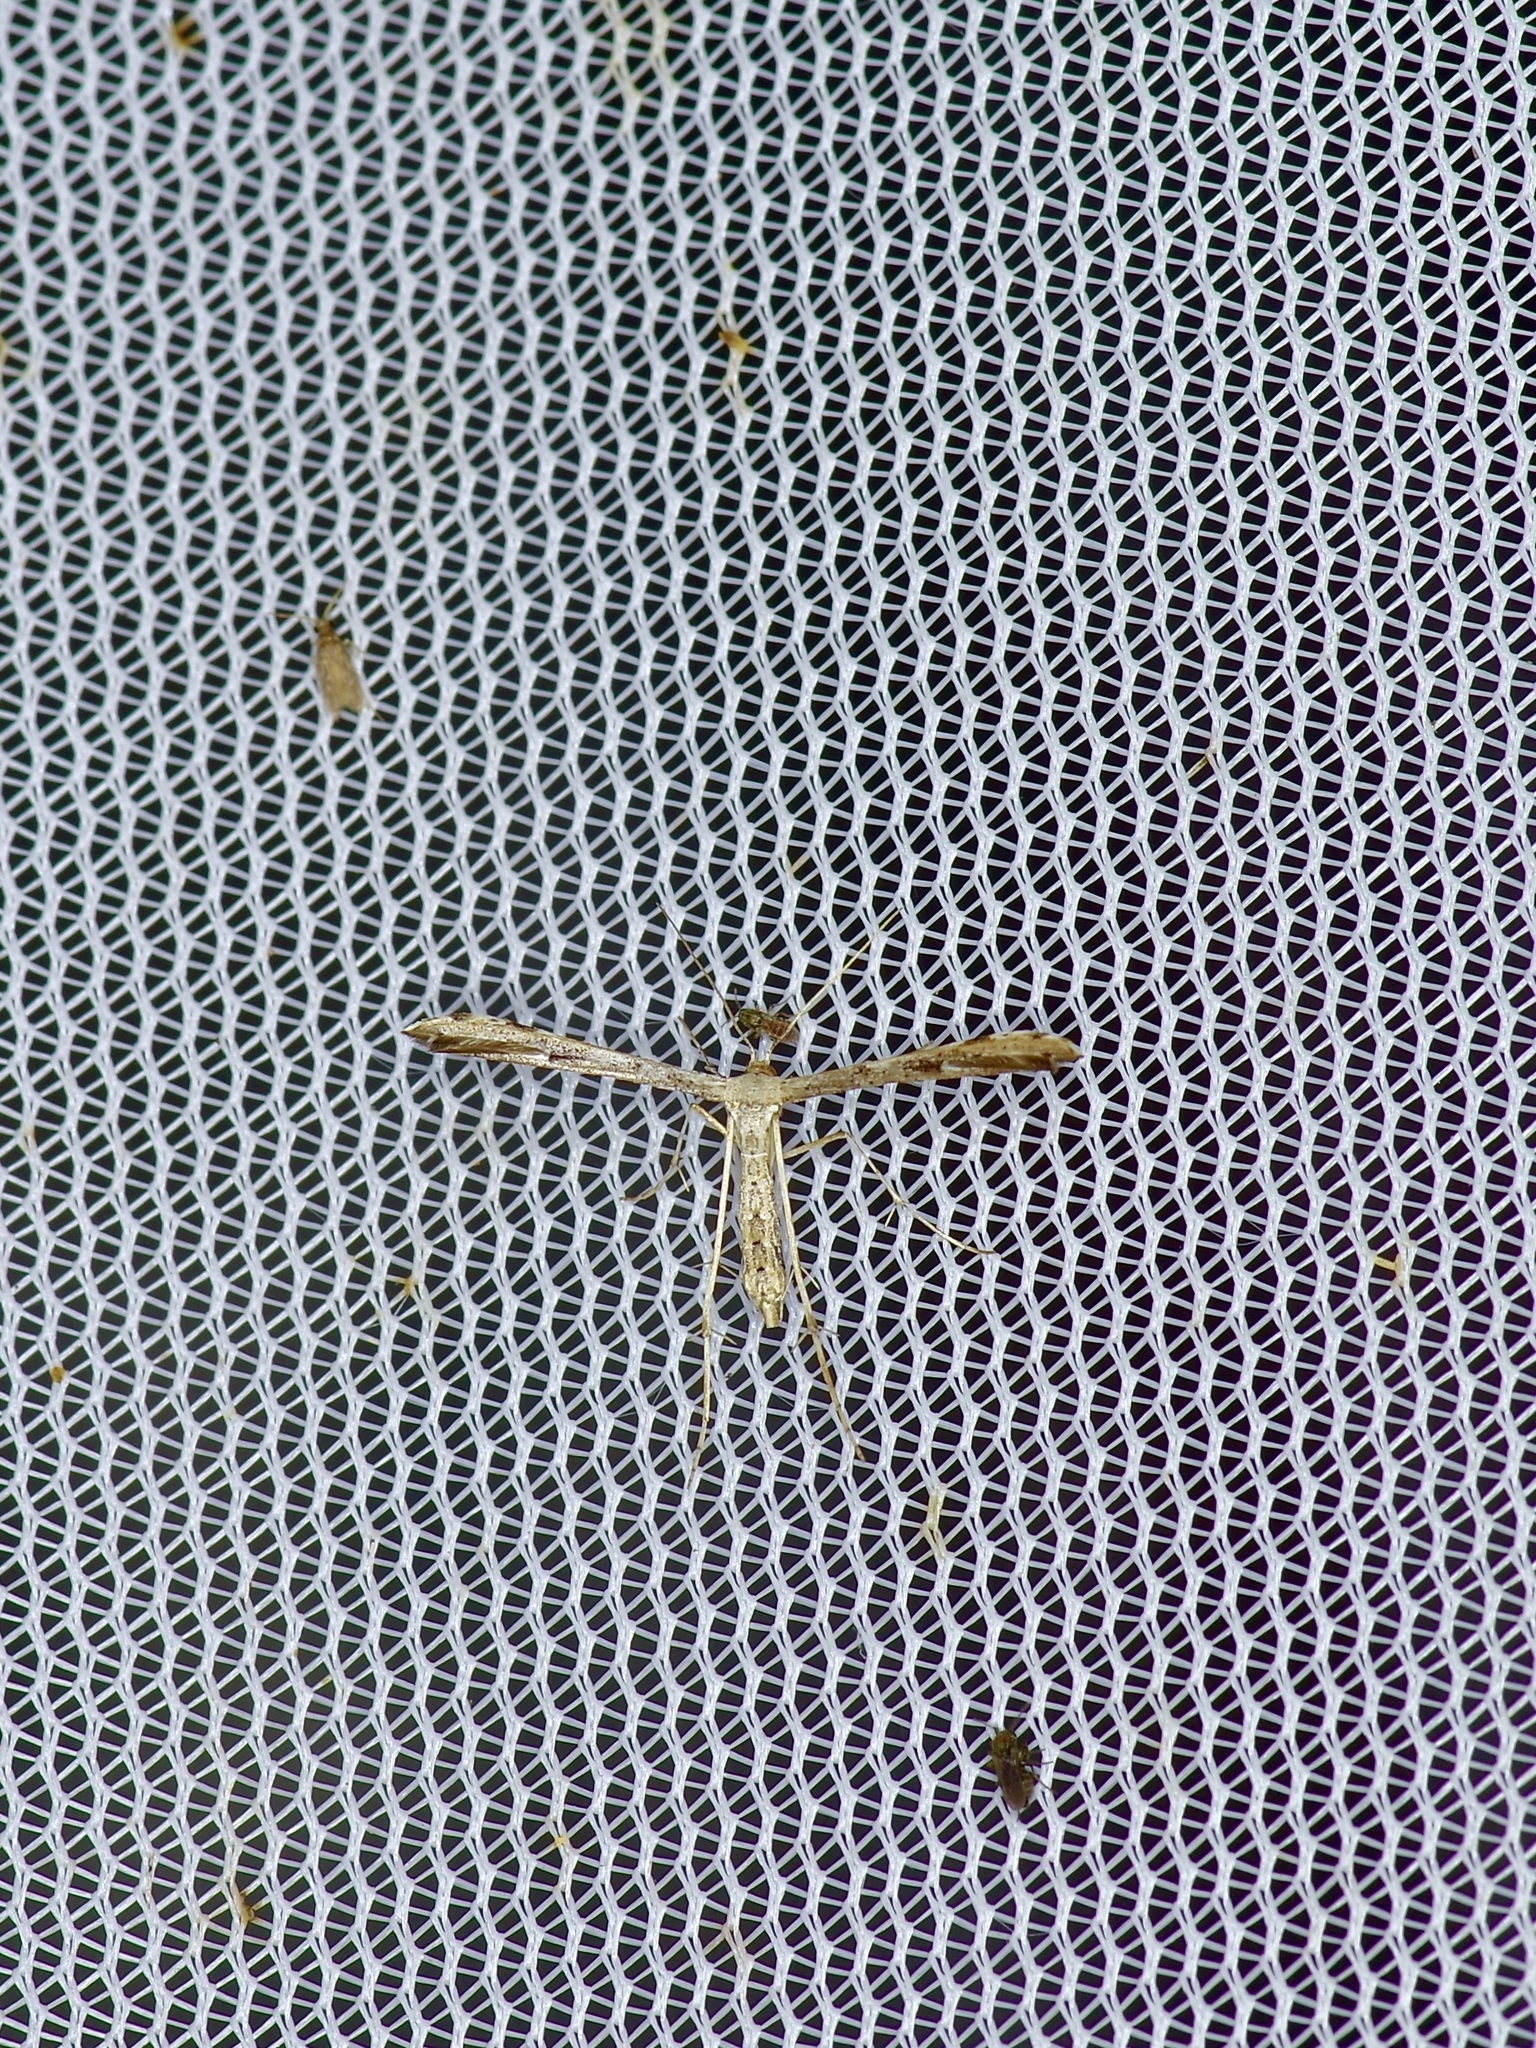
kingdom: Animalia
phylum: Arthropoda
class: Insecta
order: Lepidoptera
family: Pterophoridae
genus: Adaina
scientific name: Adaina ambrosiae
